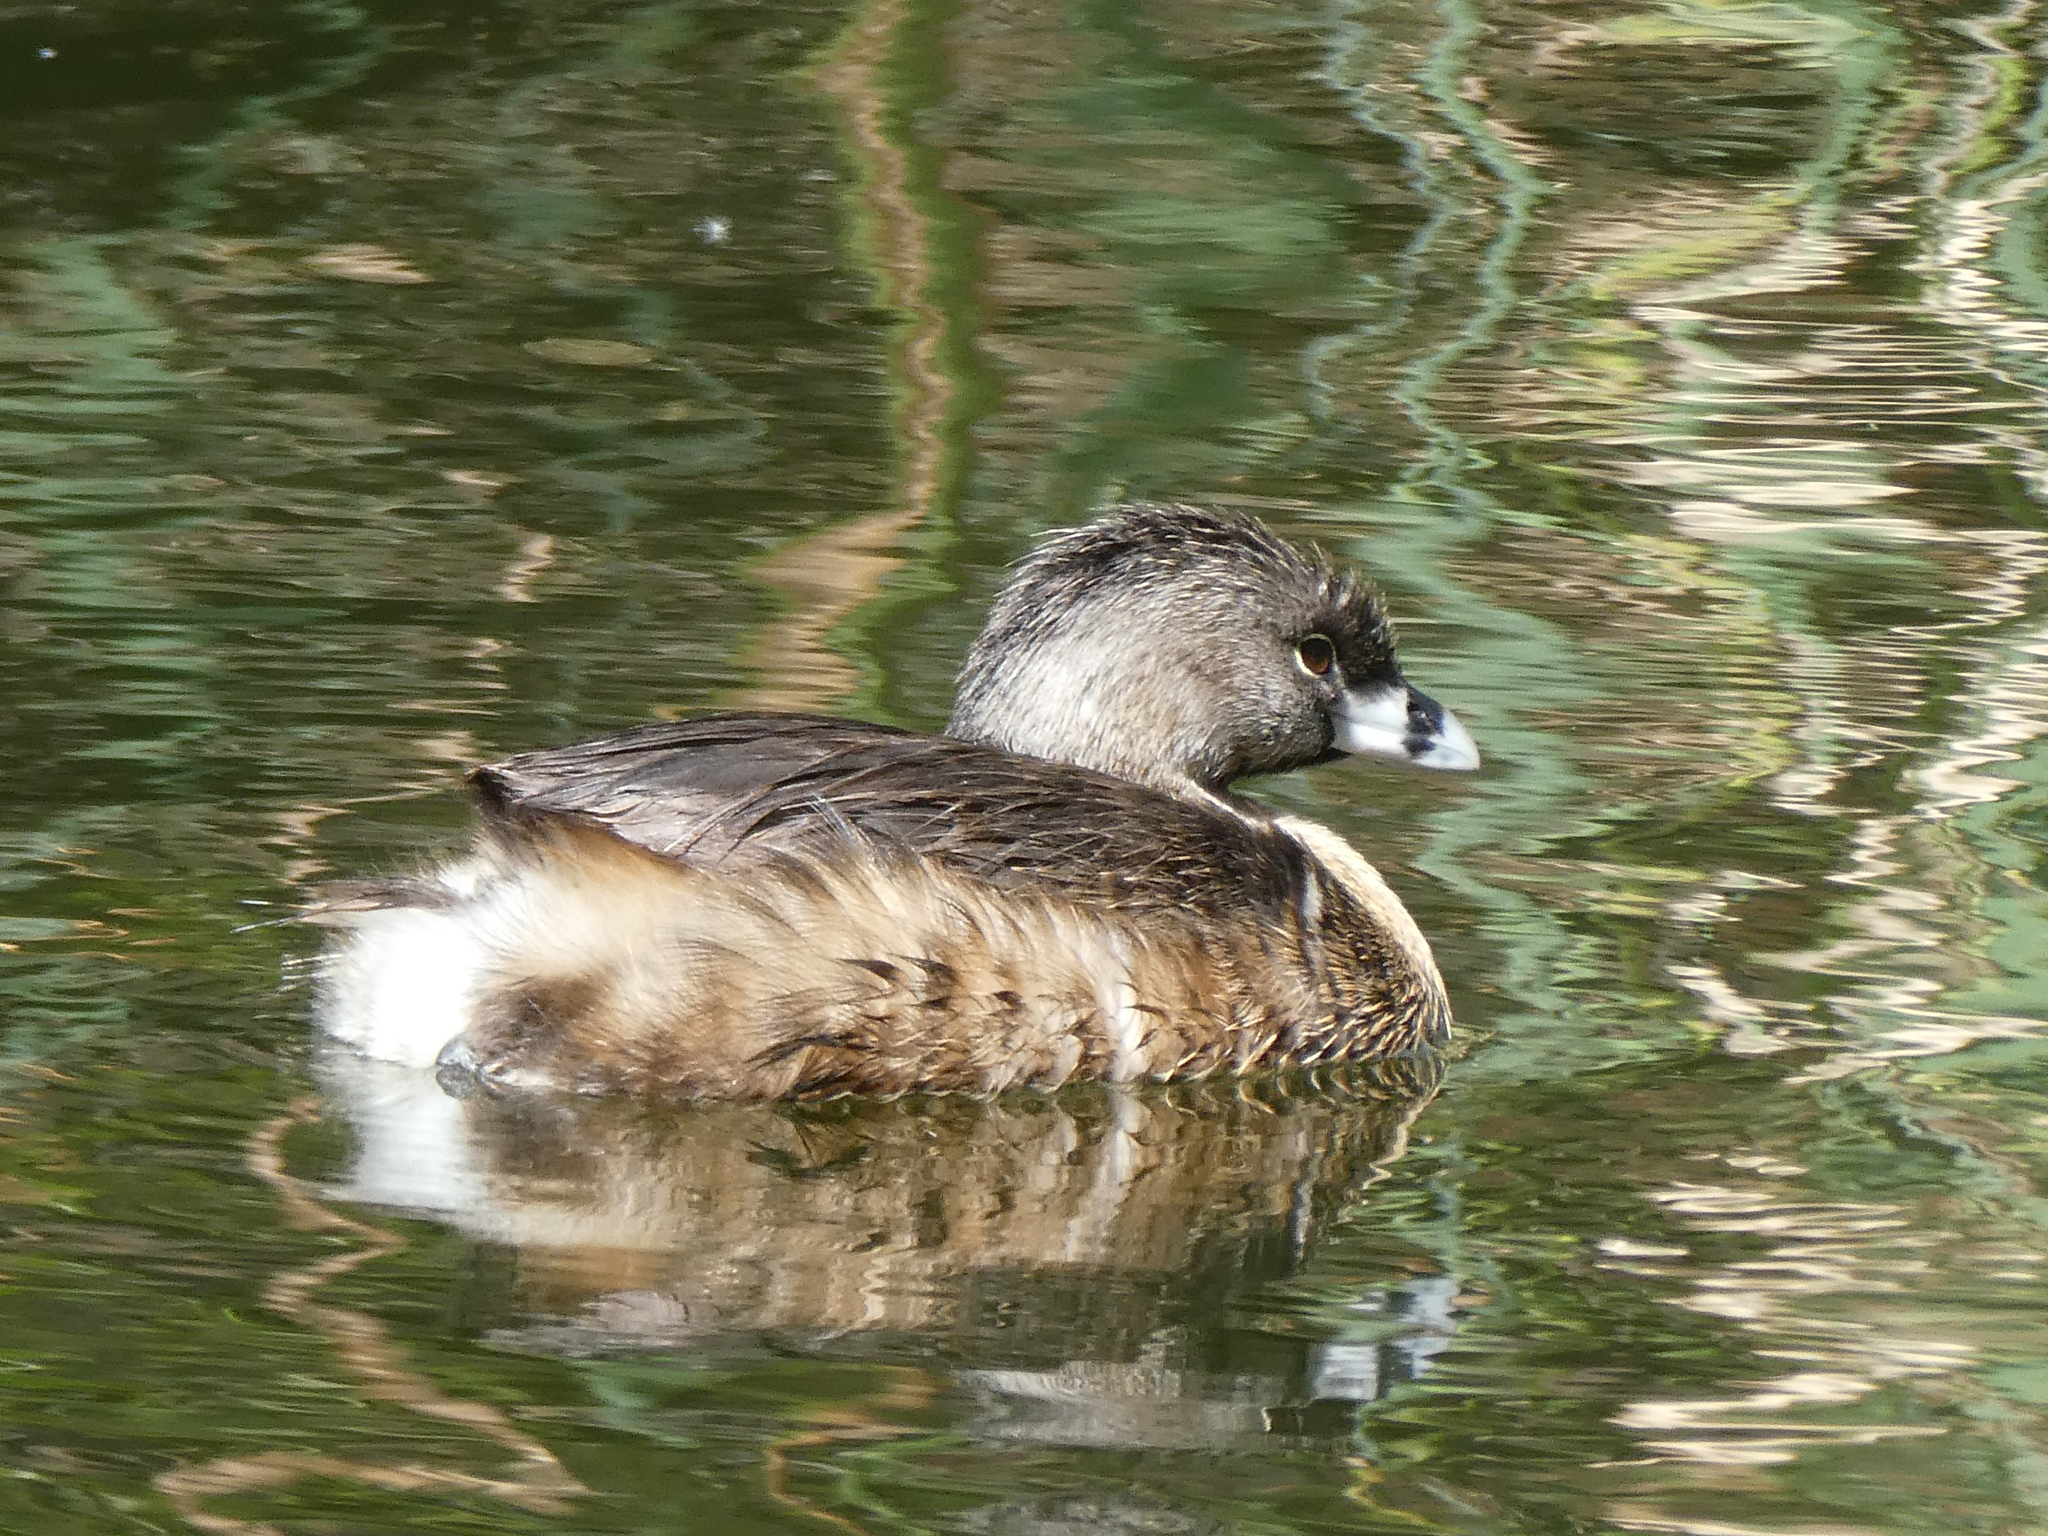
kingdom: Animalia
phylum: Chordata
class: Aves
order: Podicipediformes
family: Podicipedidae
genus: Podilymbus
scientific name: Podilymbus podiceps
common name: Pied-billed grebe
